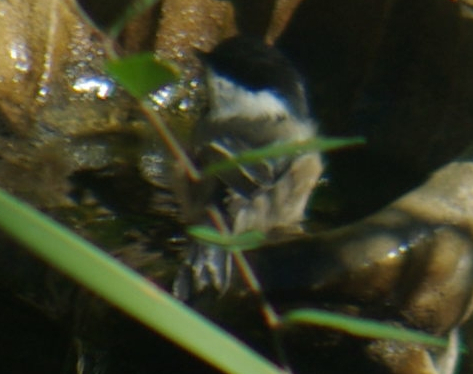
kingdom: Animalia
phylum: Chordata
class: Aves
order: Passeriformes
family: Paridae
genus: Poecile
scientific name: Poecile atricapillus
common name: Black-capped chickadee
